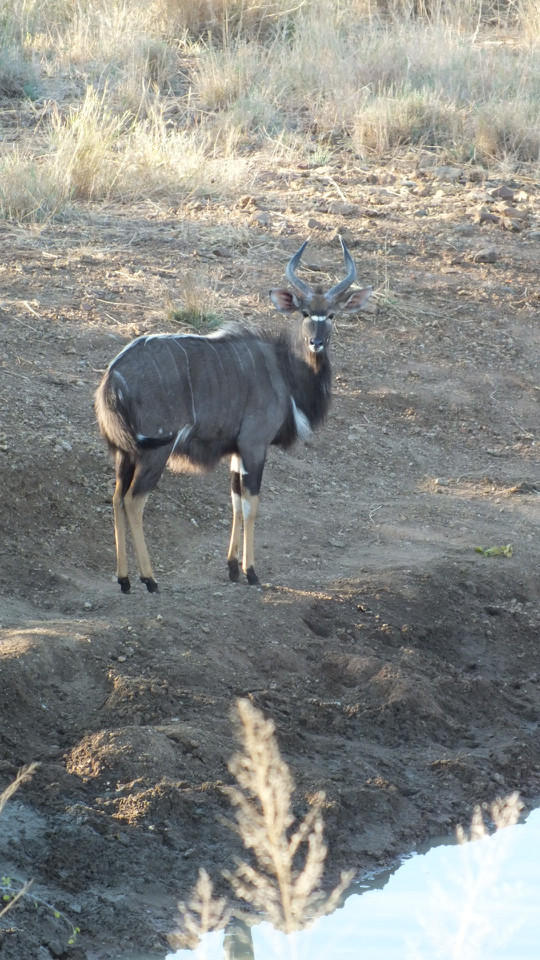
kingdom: Animalia
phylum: Chordata
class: Mammalia
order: Artiodactyla
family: Bovidae
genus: Tragelaphus
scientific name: Tragelaphus angasii
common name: Nyala
